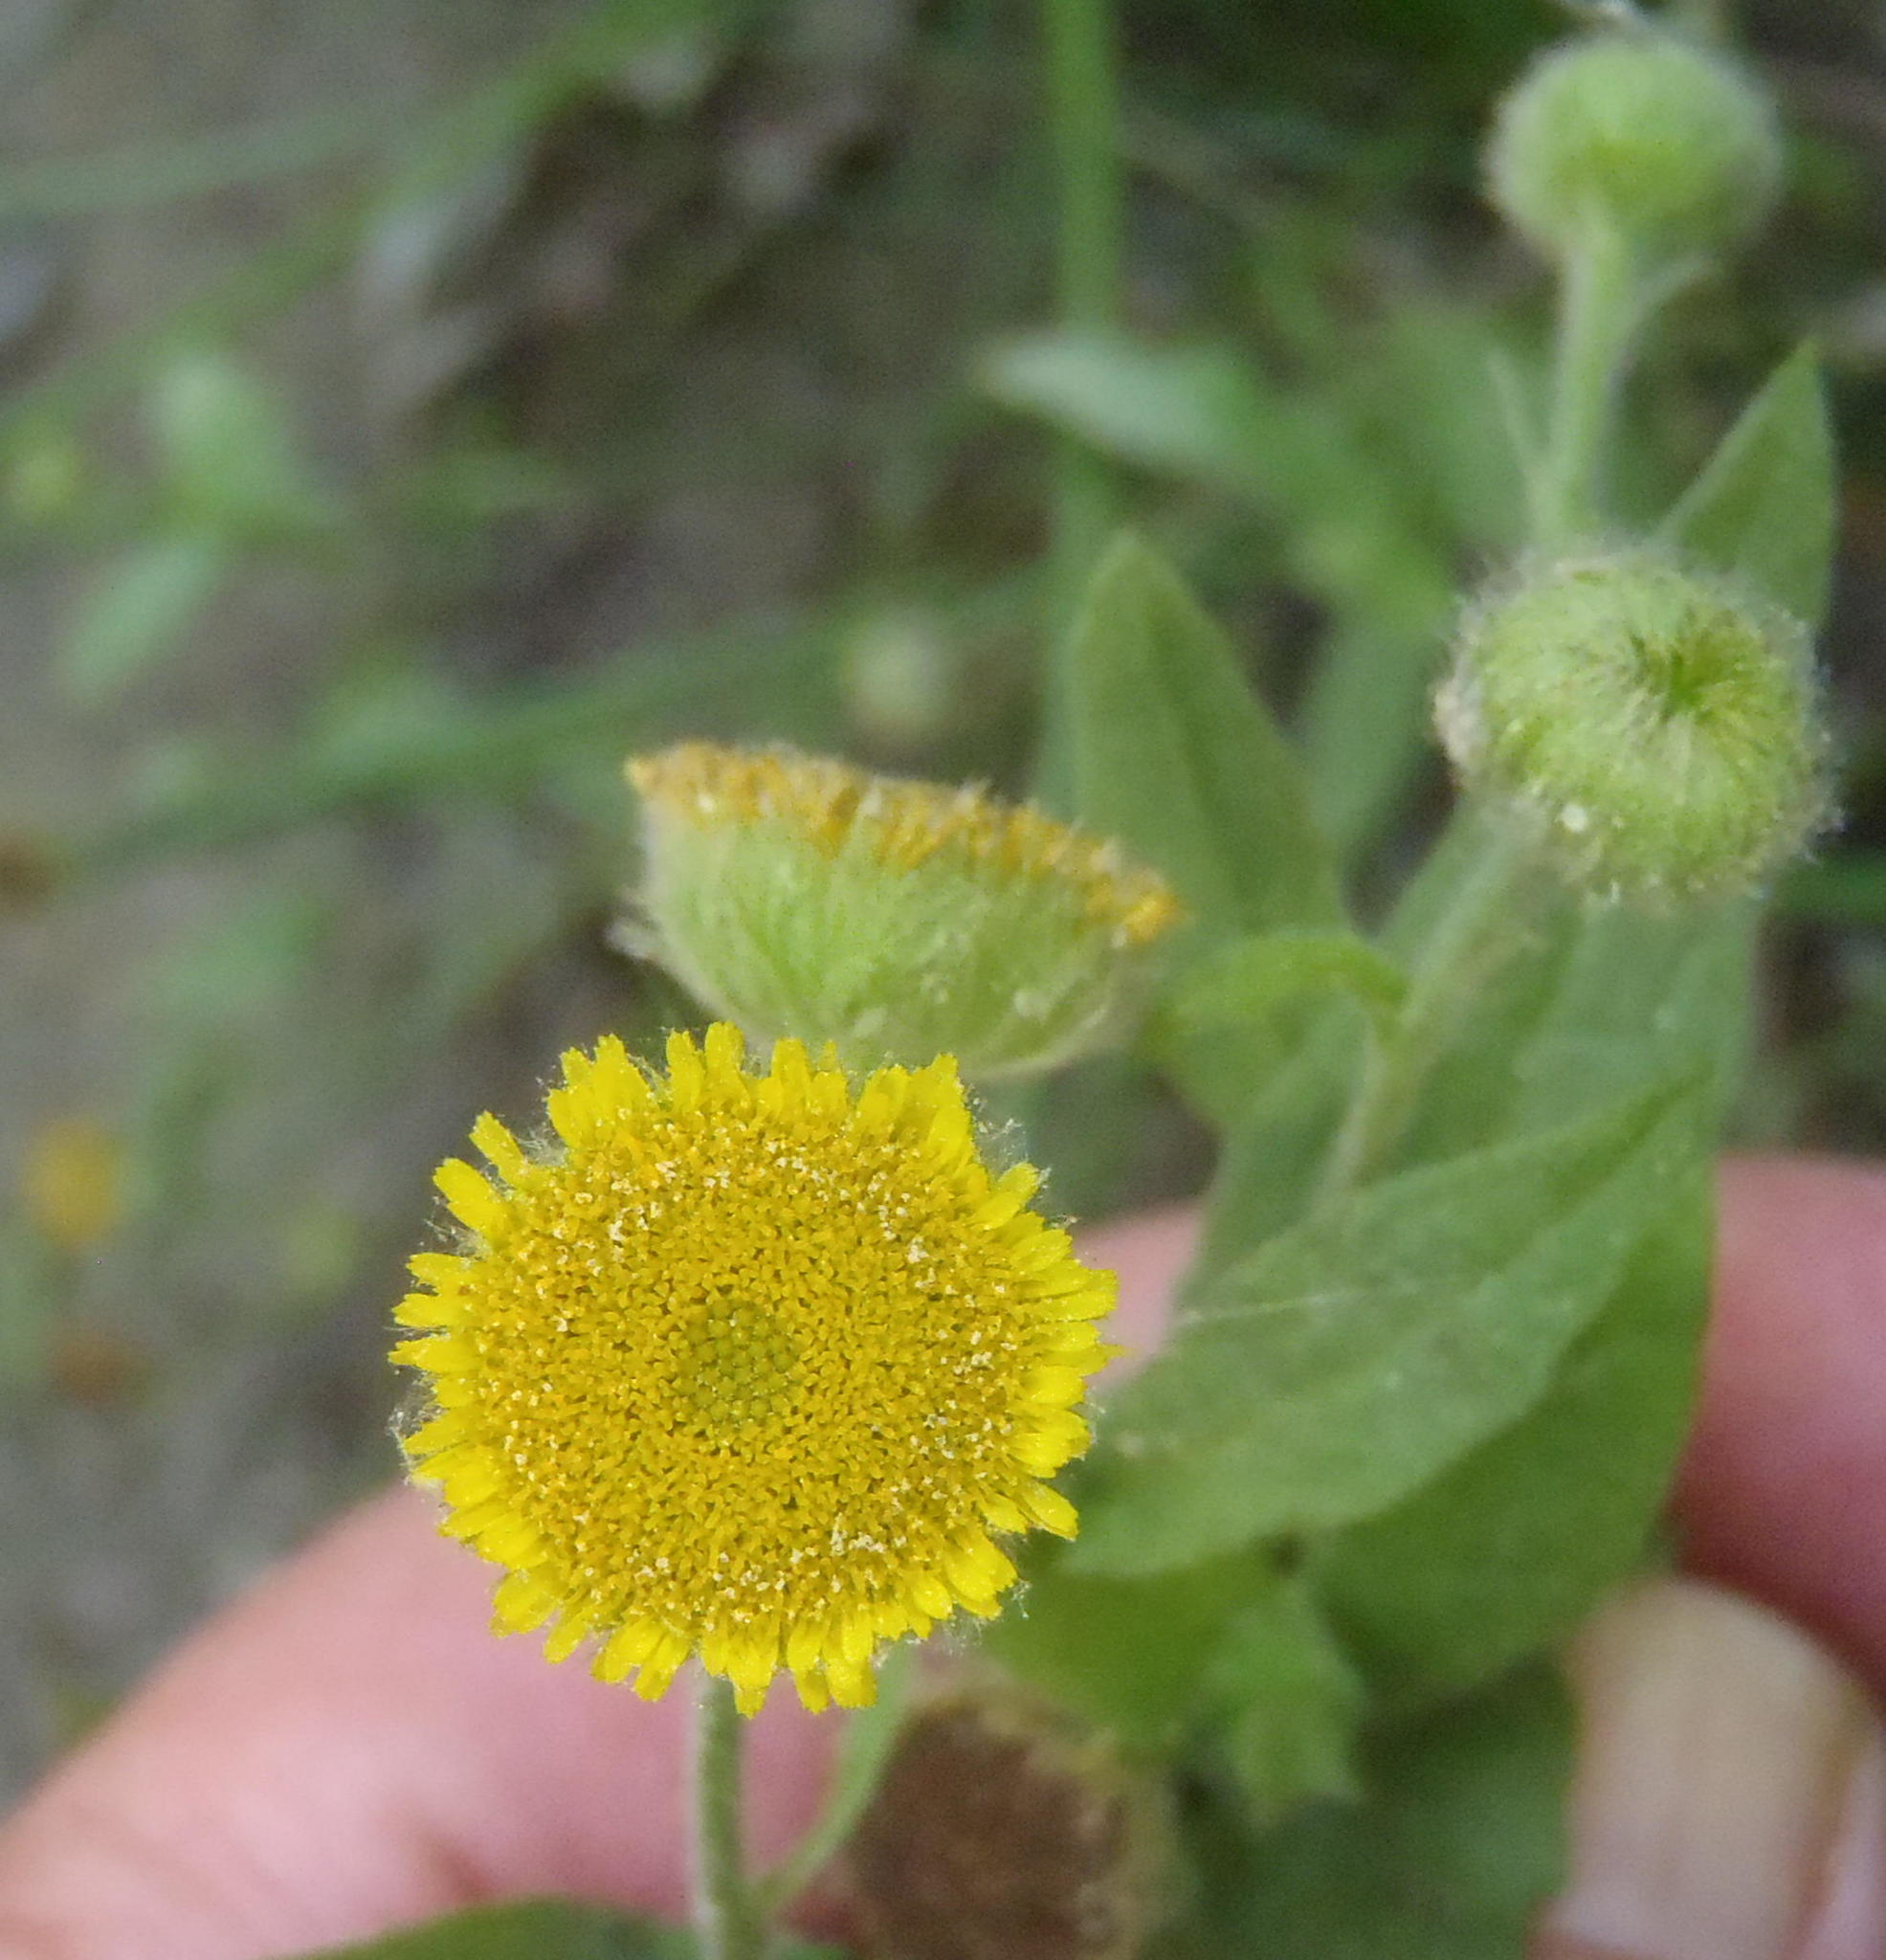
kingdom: Plantae
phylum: Tracheophyta
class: Magnoliopsida
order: Asterales
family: Asteraceae
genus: Pulicaria
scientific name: Pulicaria scabra
